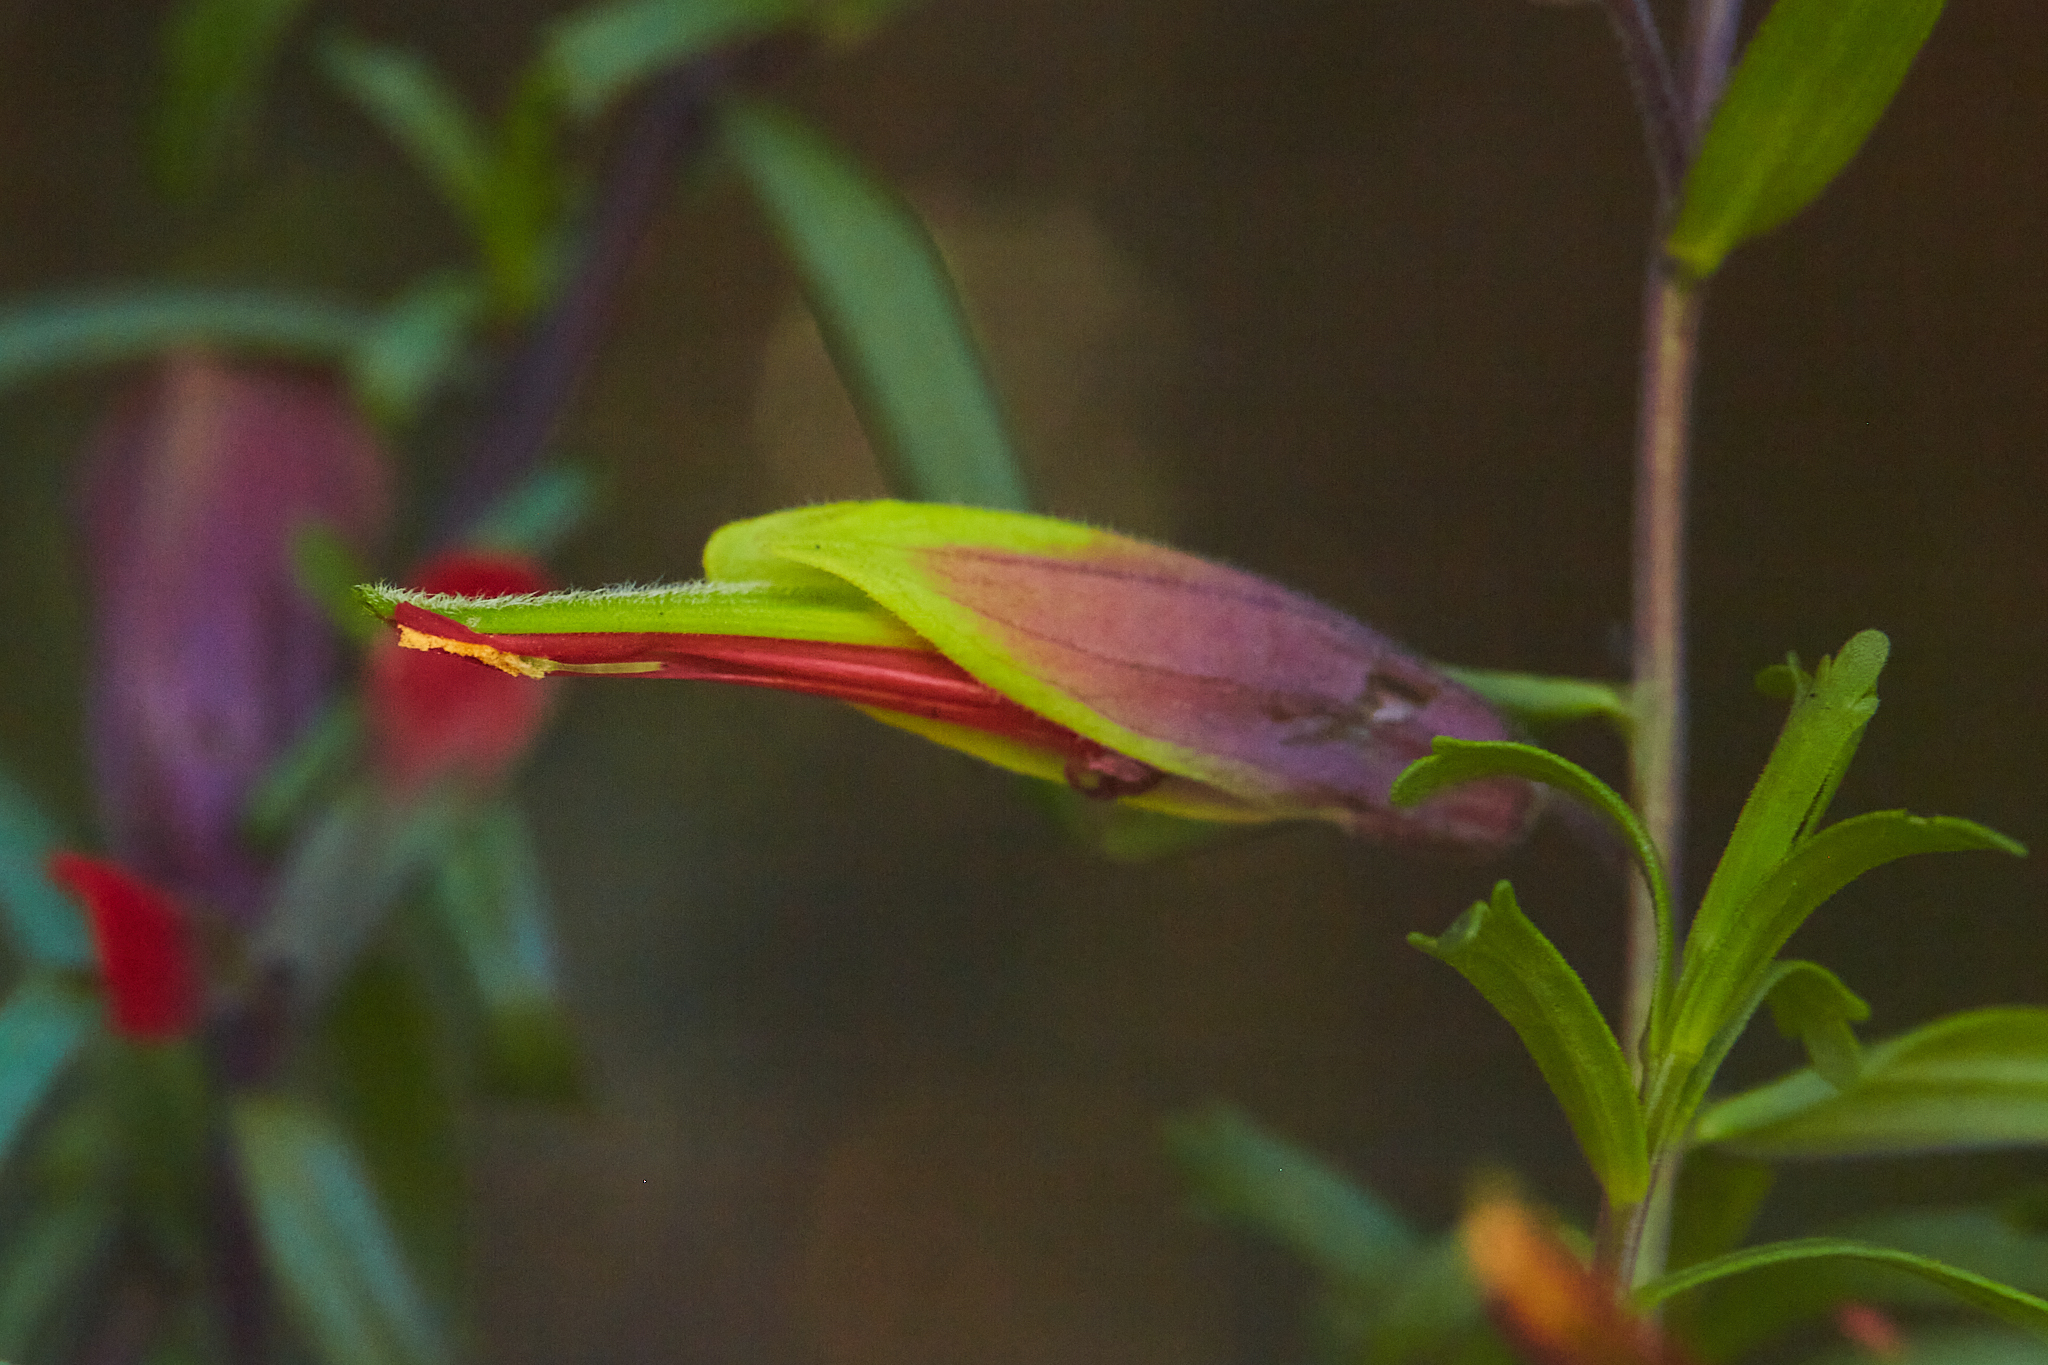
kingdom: Plantae
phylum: Tracheophyta
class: Magnoliopsida
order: Lamiales
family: Orobanchaceae
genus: Castilleja
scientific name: Castilleja talamancensis
